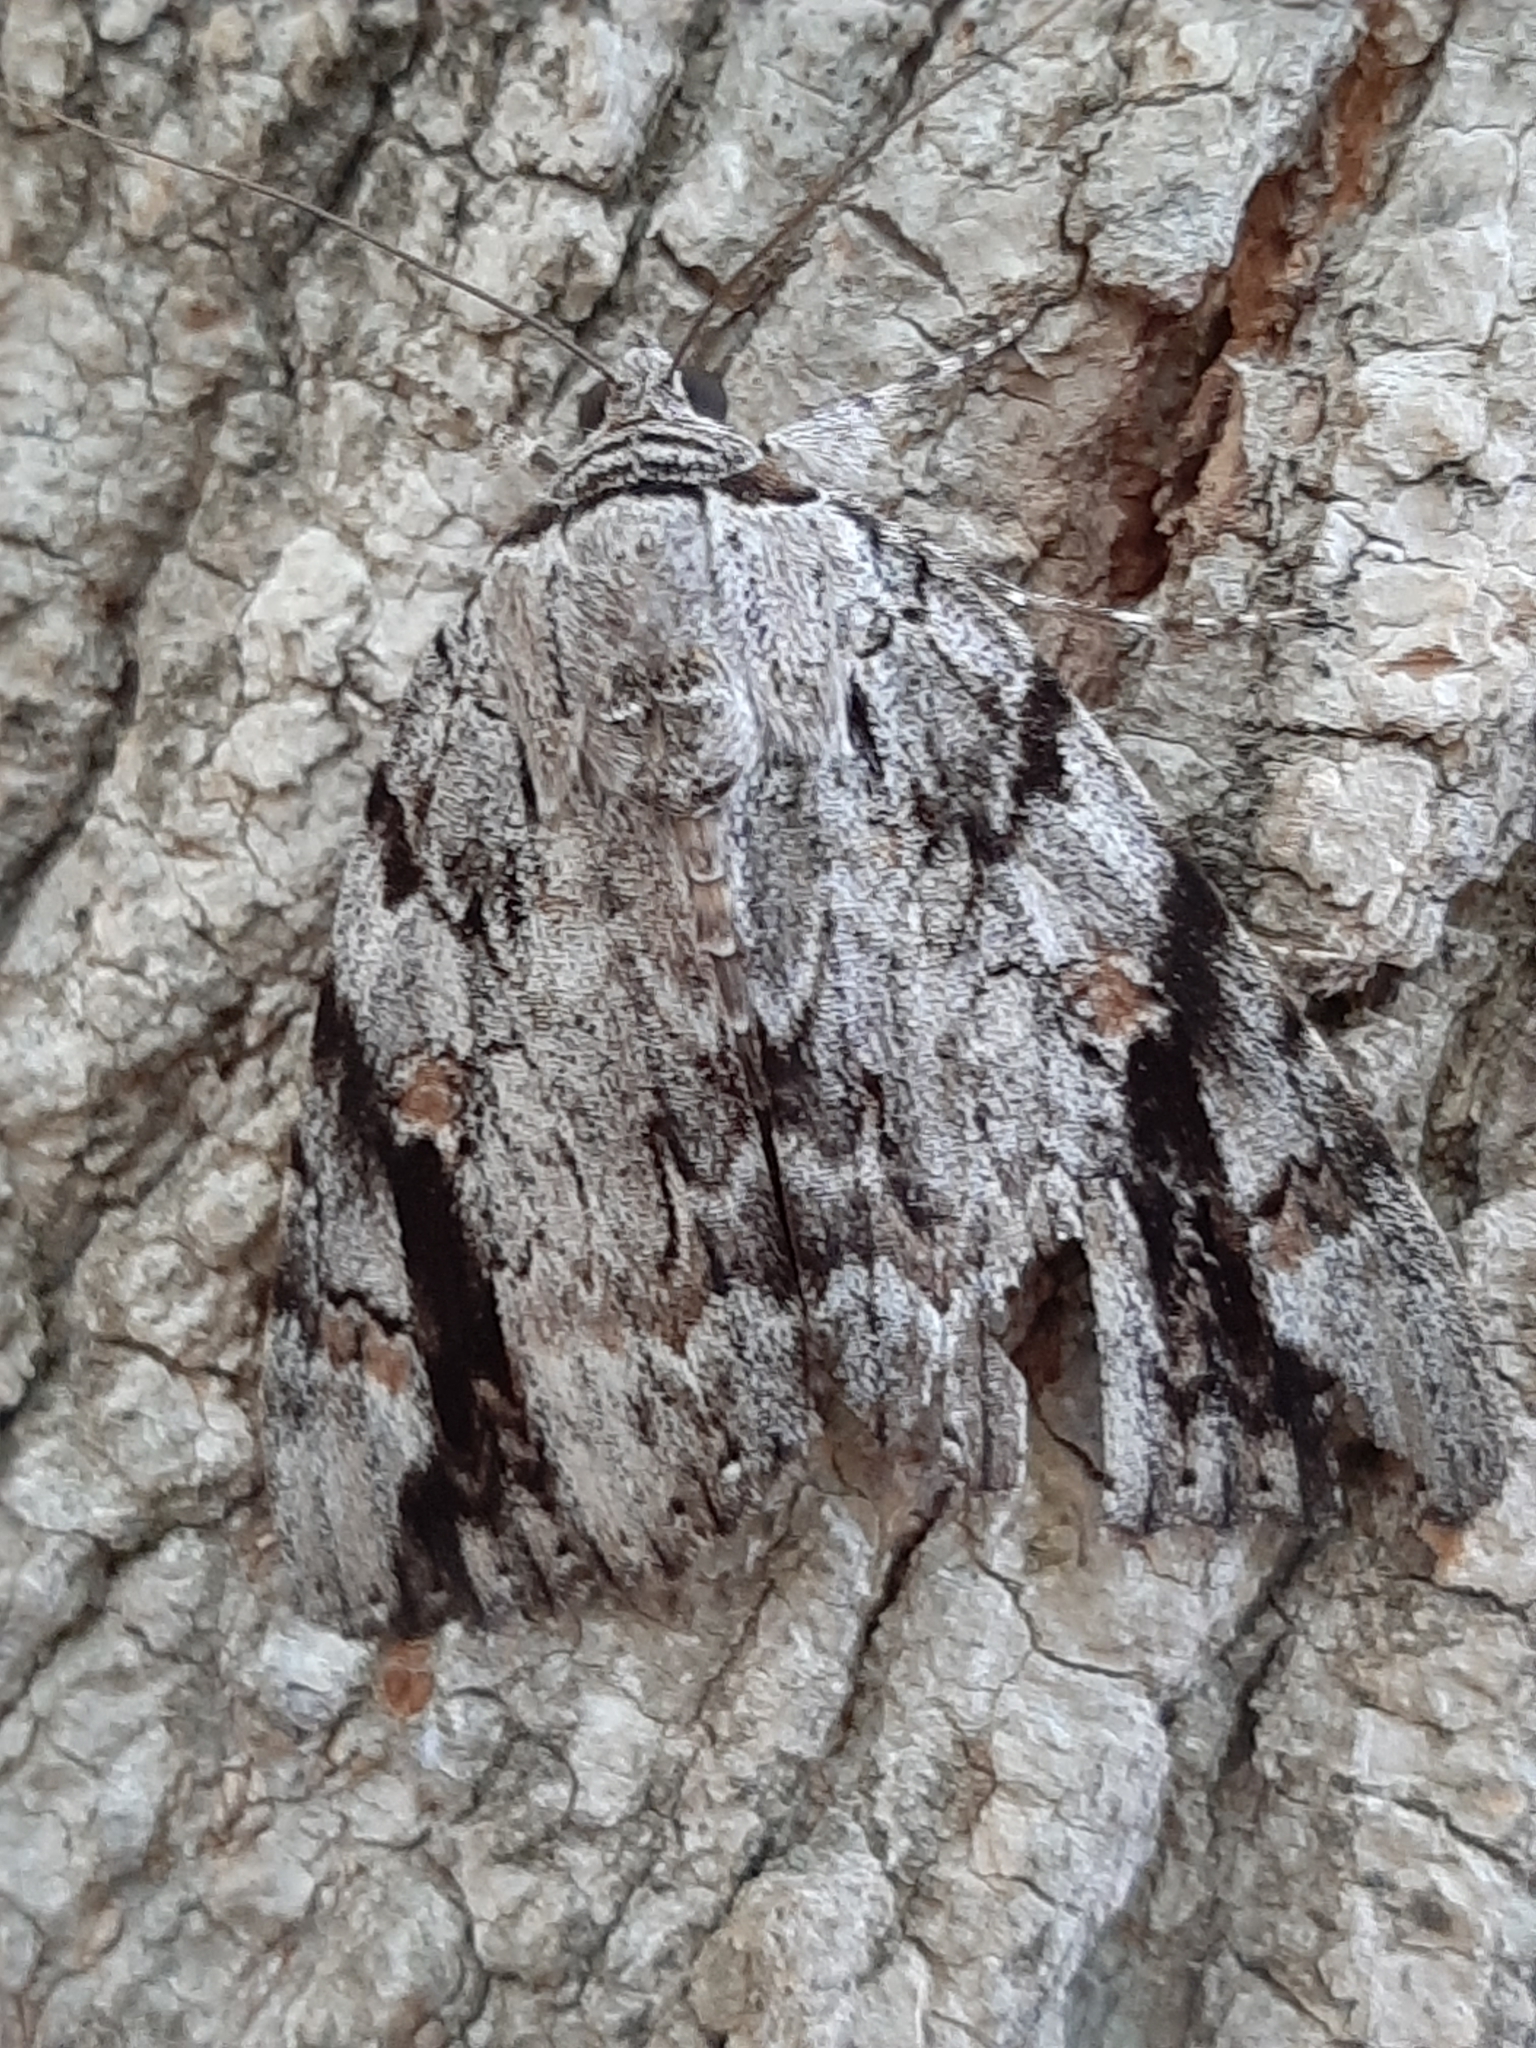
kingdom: Animalia
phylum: Arthropoda
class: Insecta
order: Lepidoptera
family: Erebidae
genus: Catocala
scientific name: Catocala maestosa
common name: Sad underwing
